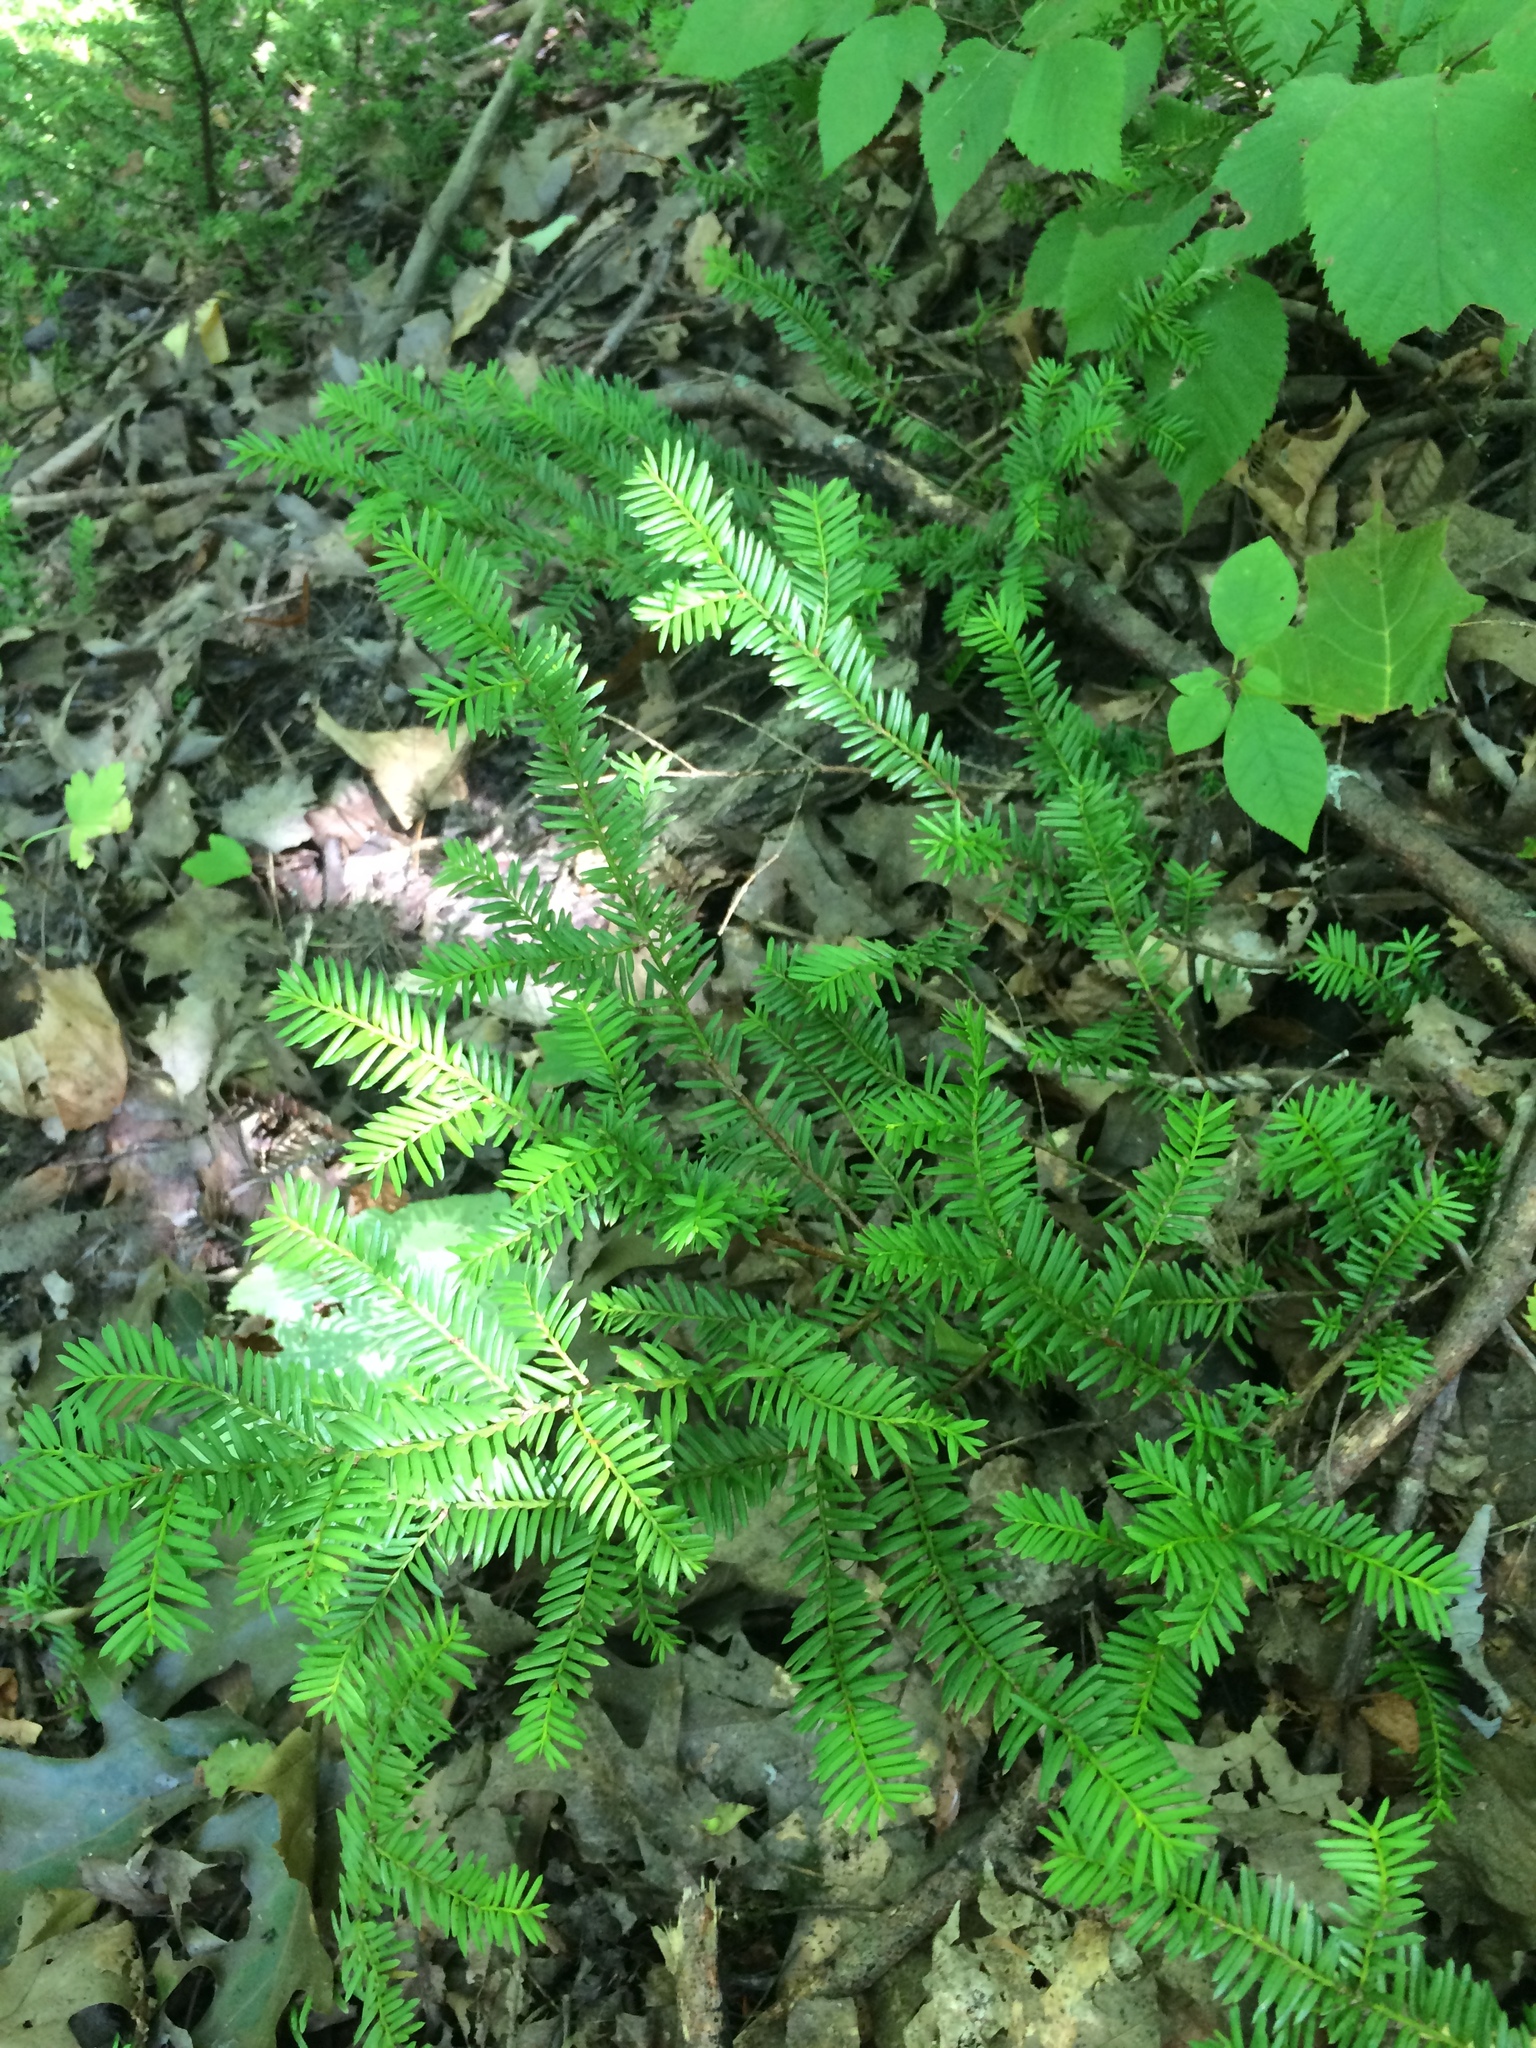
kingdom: Plantae
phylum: Tracheophyta
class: Pinopsida
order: Pinales
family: Taxaceae
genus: Taxus
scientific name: Taxus canadensis
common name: American yew
